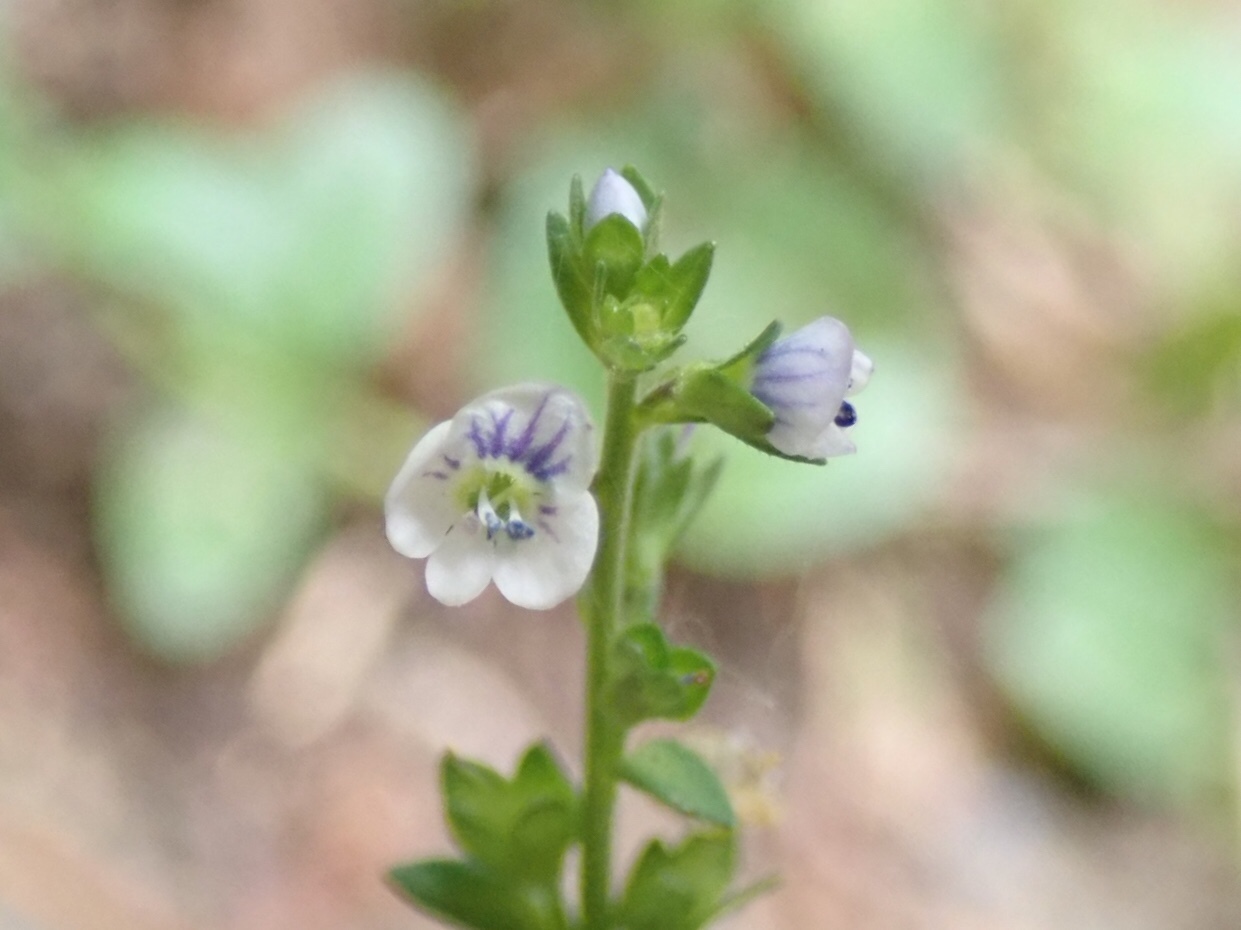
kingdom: Plantae
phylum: Tracheophyta
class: Magnoliopsida
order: Lamiales
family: Plantaginaceae
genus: Veronica
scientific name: Veronica serpyllifolia
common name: Thyme-leaved speedwell
